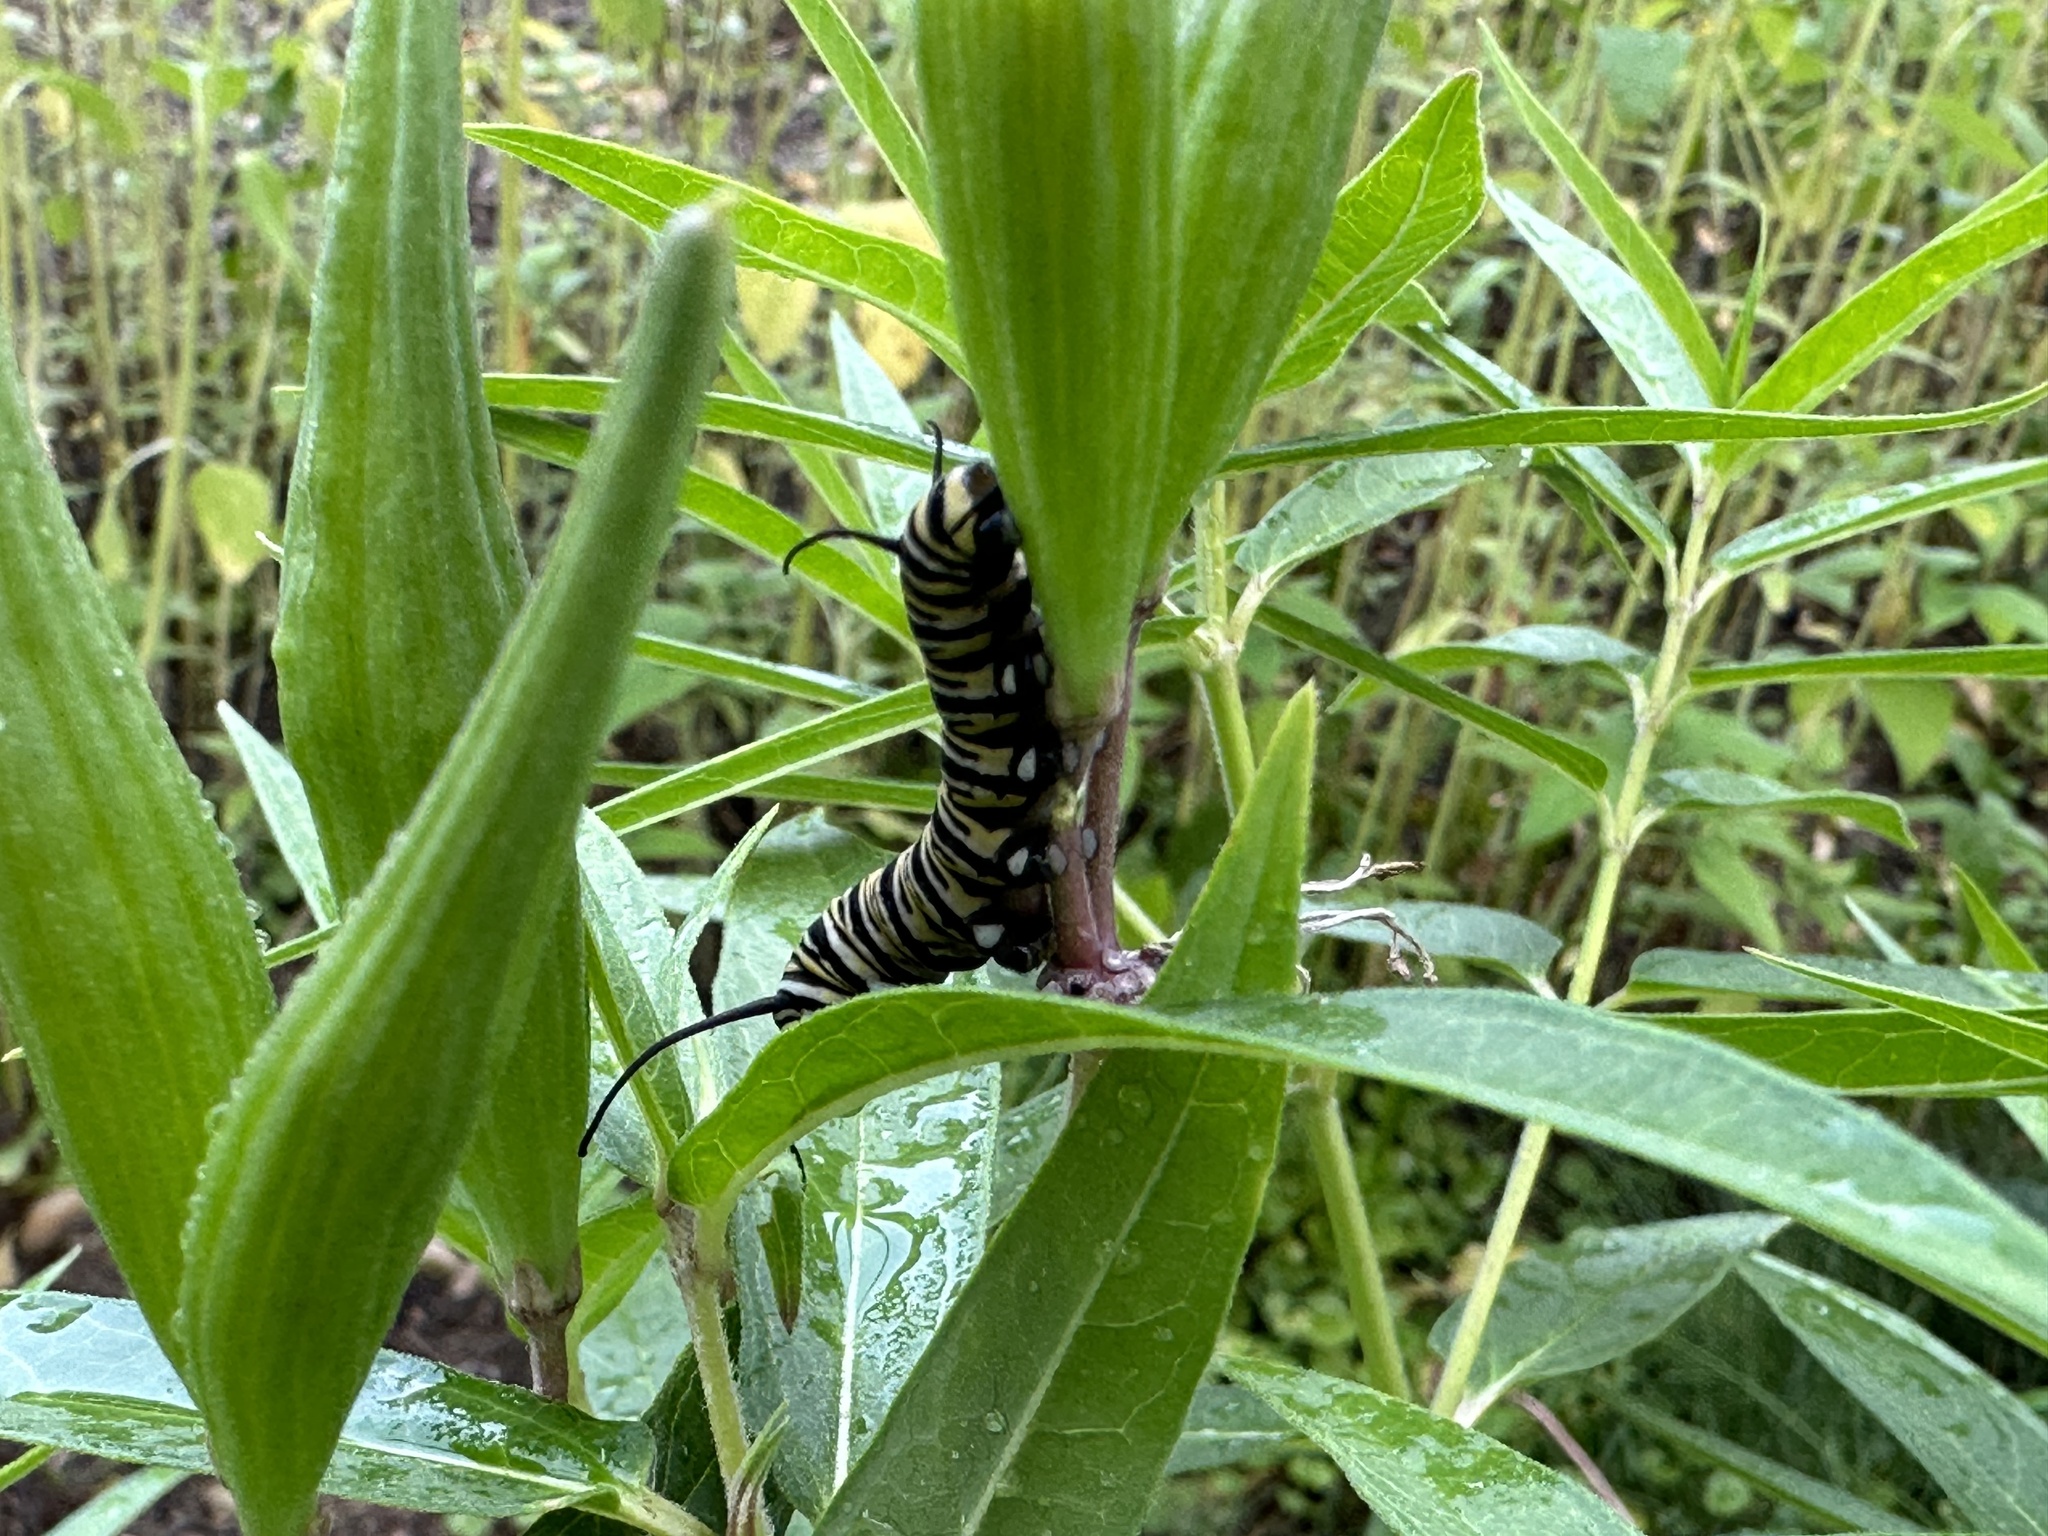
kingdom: Animalia
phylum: Arthropoda
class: Insecta
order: Lepidoptera
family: Nymphalidae
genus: Danaus
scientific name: Danaus plexippus
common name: Monarch
